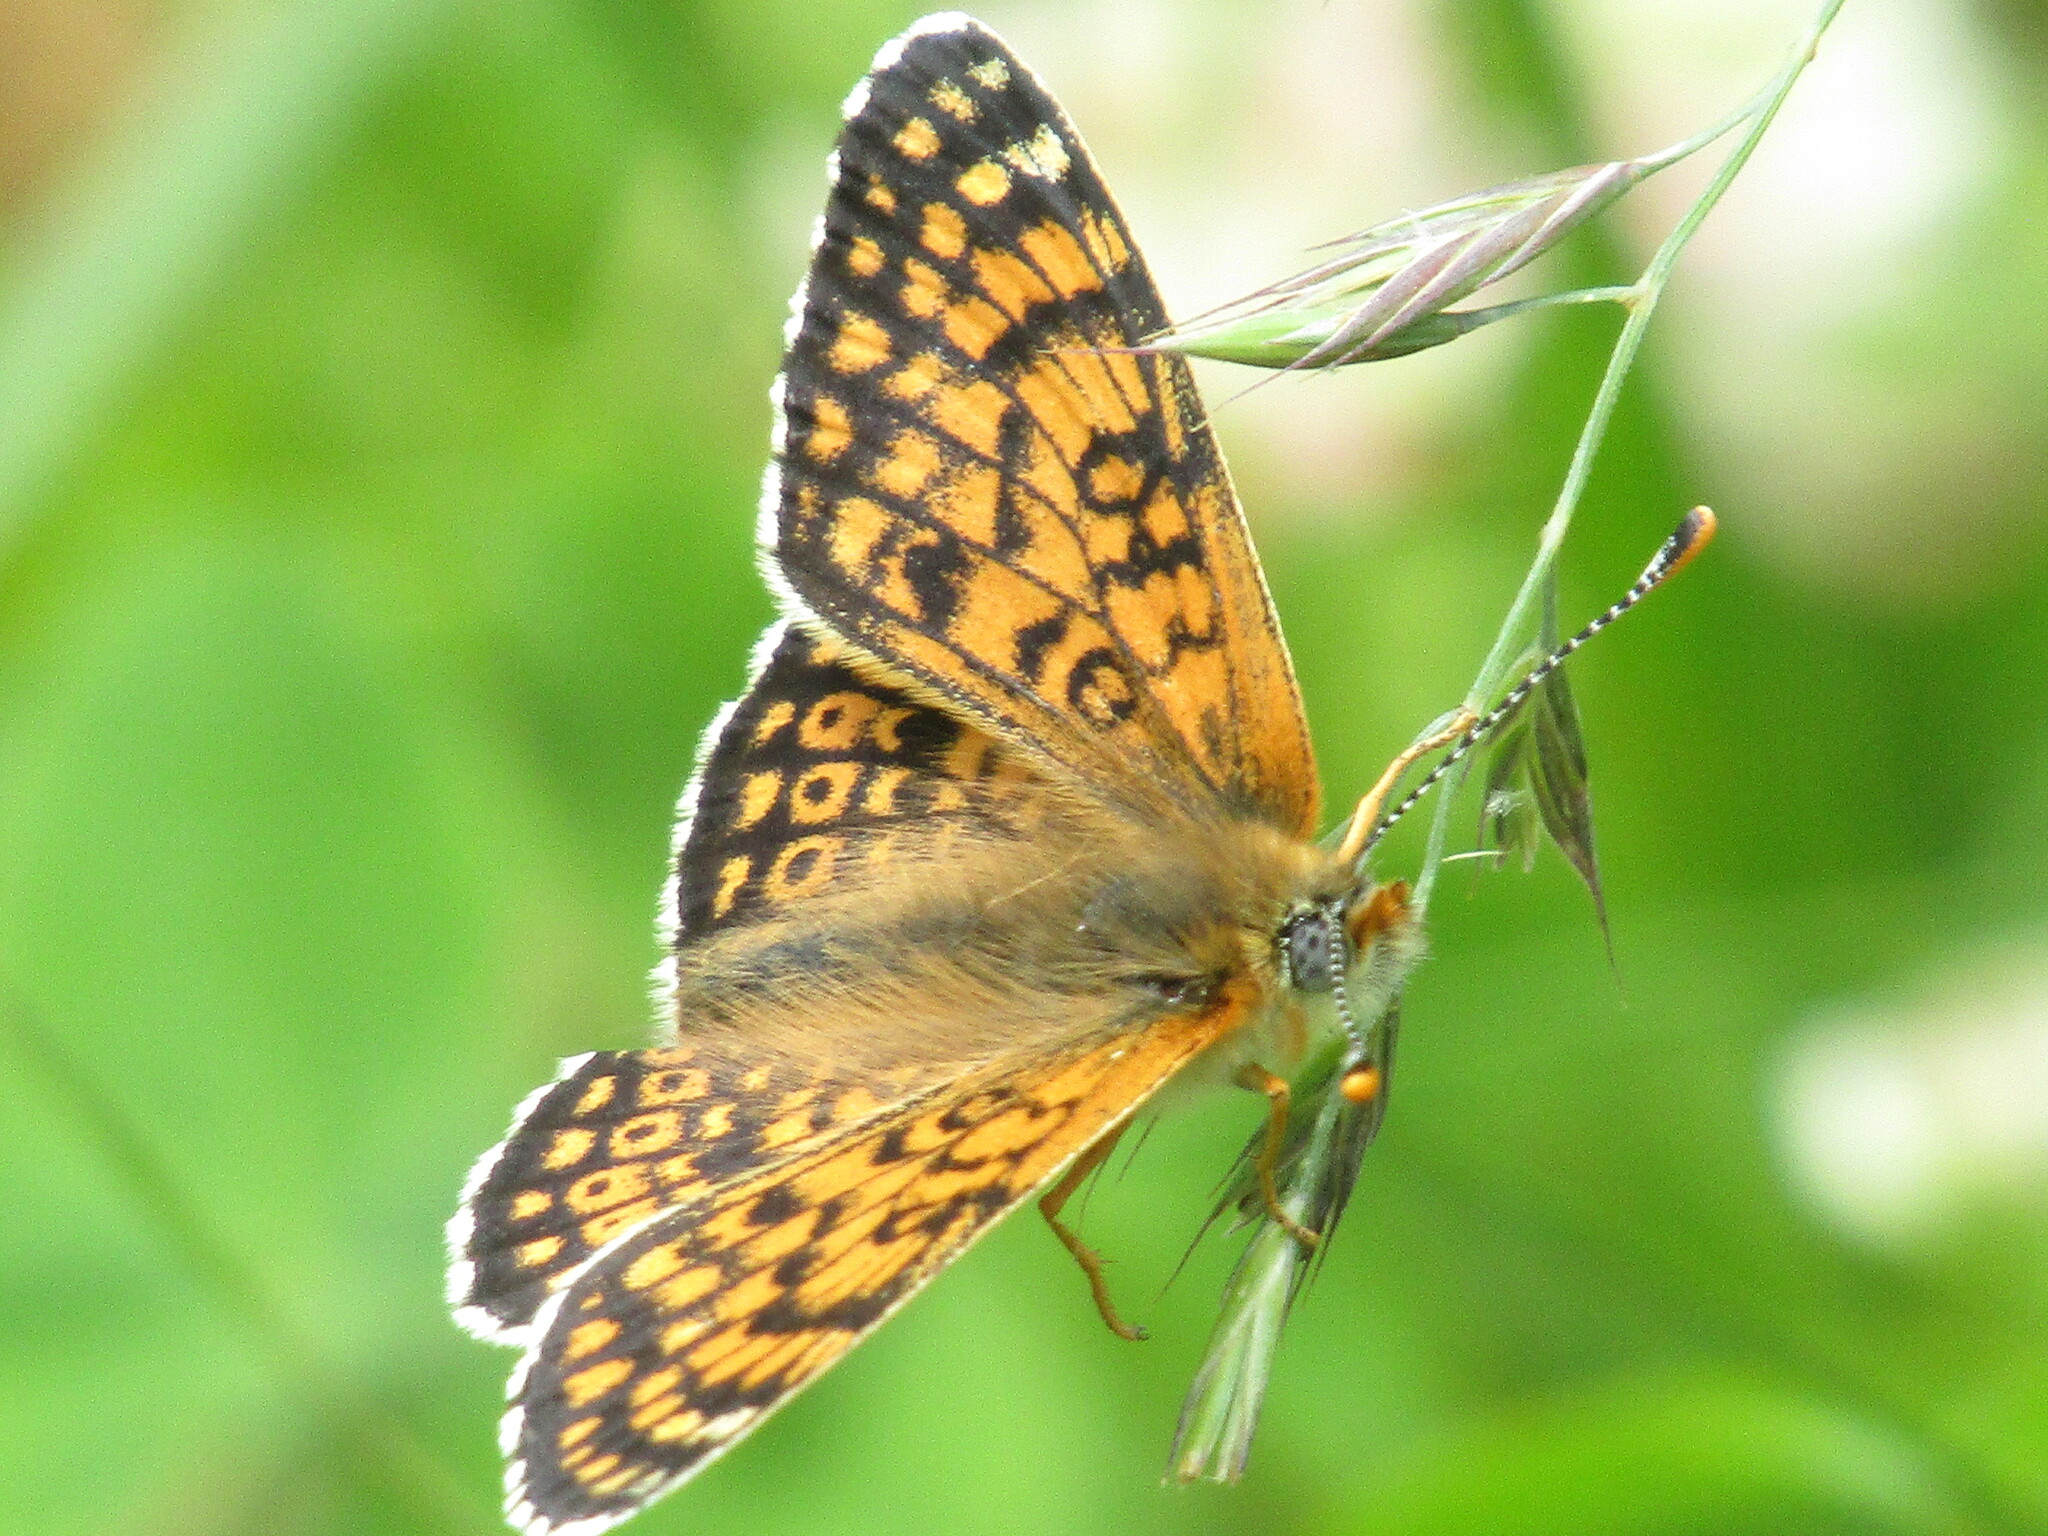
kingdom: Animalia
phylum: Arthropoda
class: Insecta
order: Lepidoptera
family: Nymphalidae
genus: Melitaea
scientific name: Melitaea cinxia
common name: Glanville fritillary
